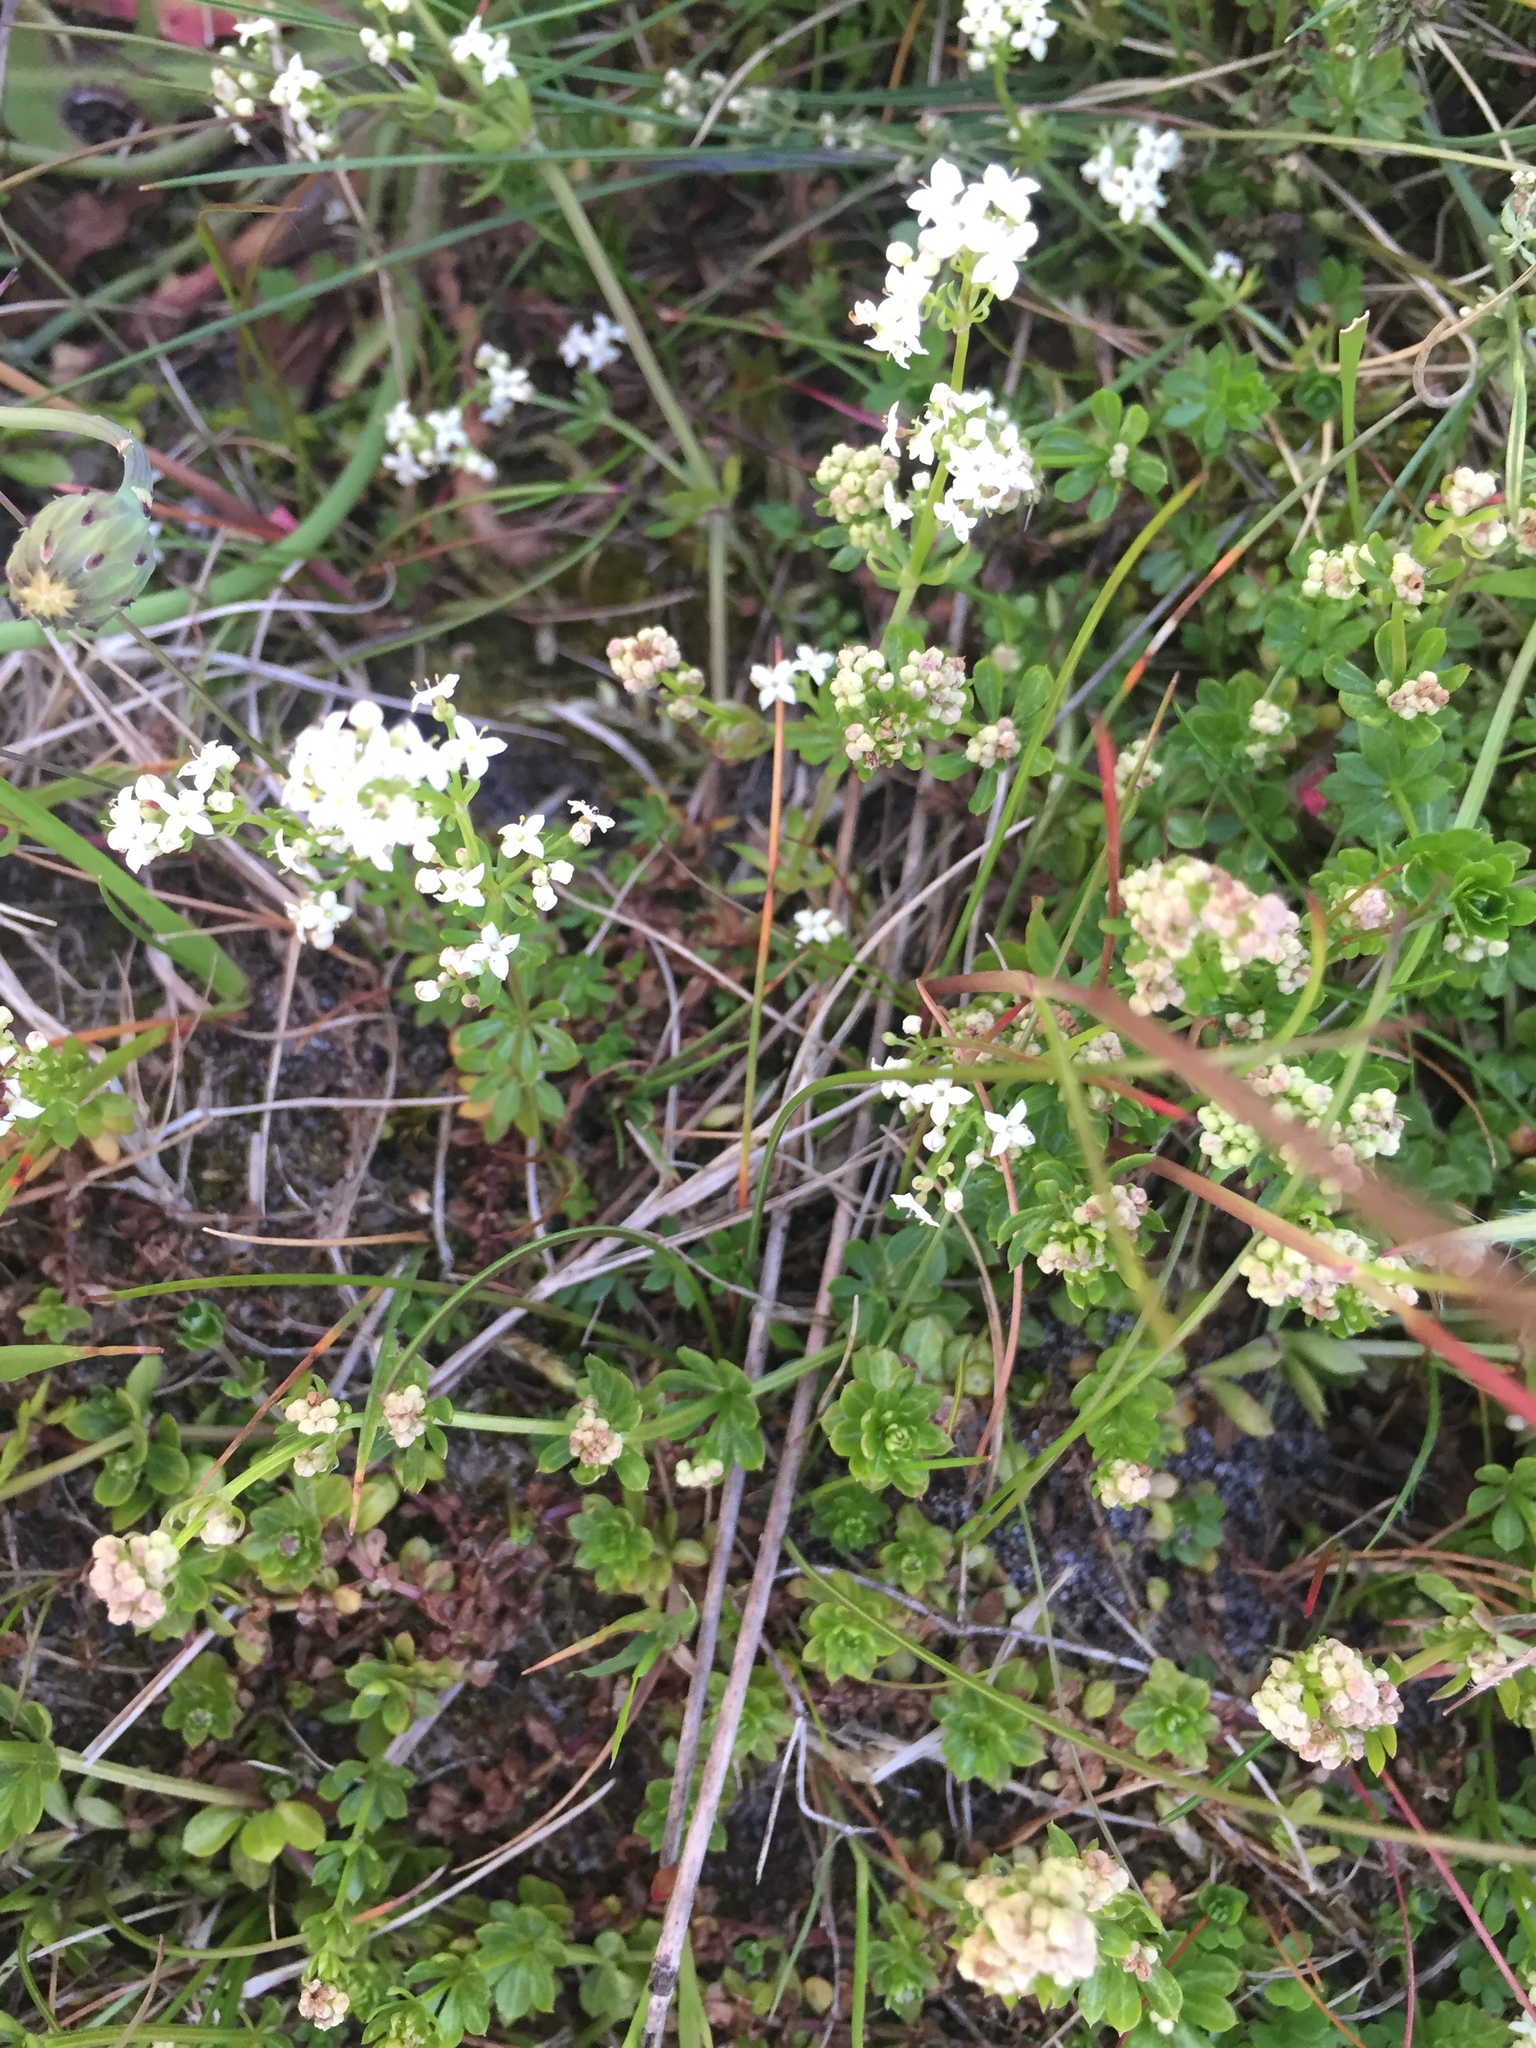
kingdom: Plantae
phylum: Tracheophyta
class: Magnoliopsida
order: Gentianales
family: Rubiaceae
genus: Galium
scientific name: Galium saxatile
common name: Heath bedstraw
